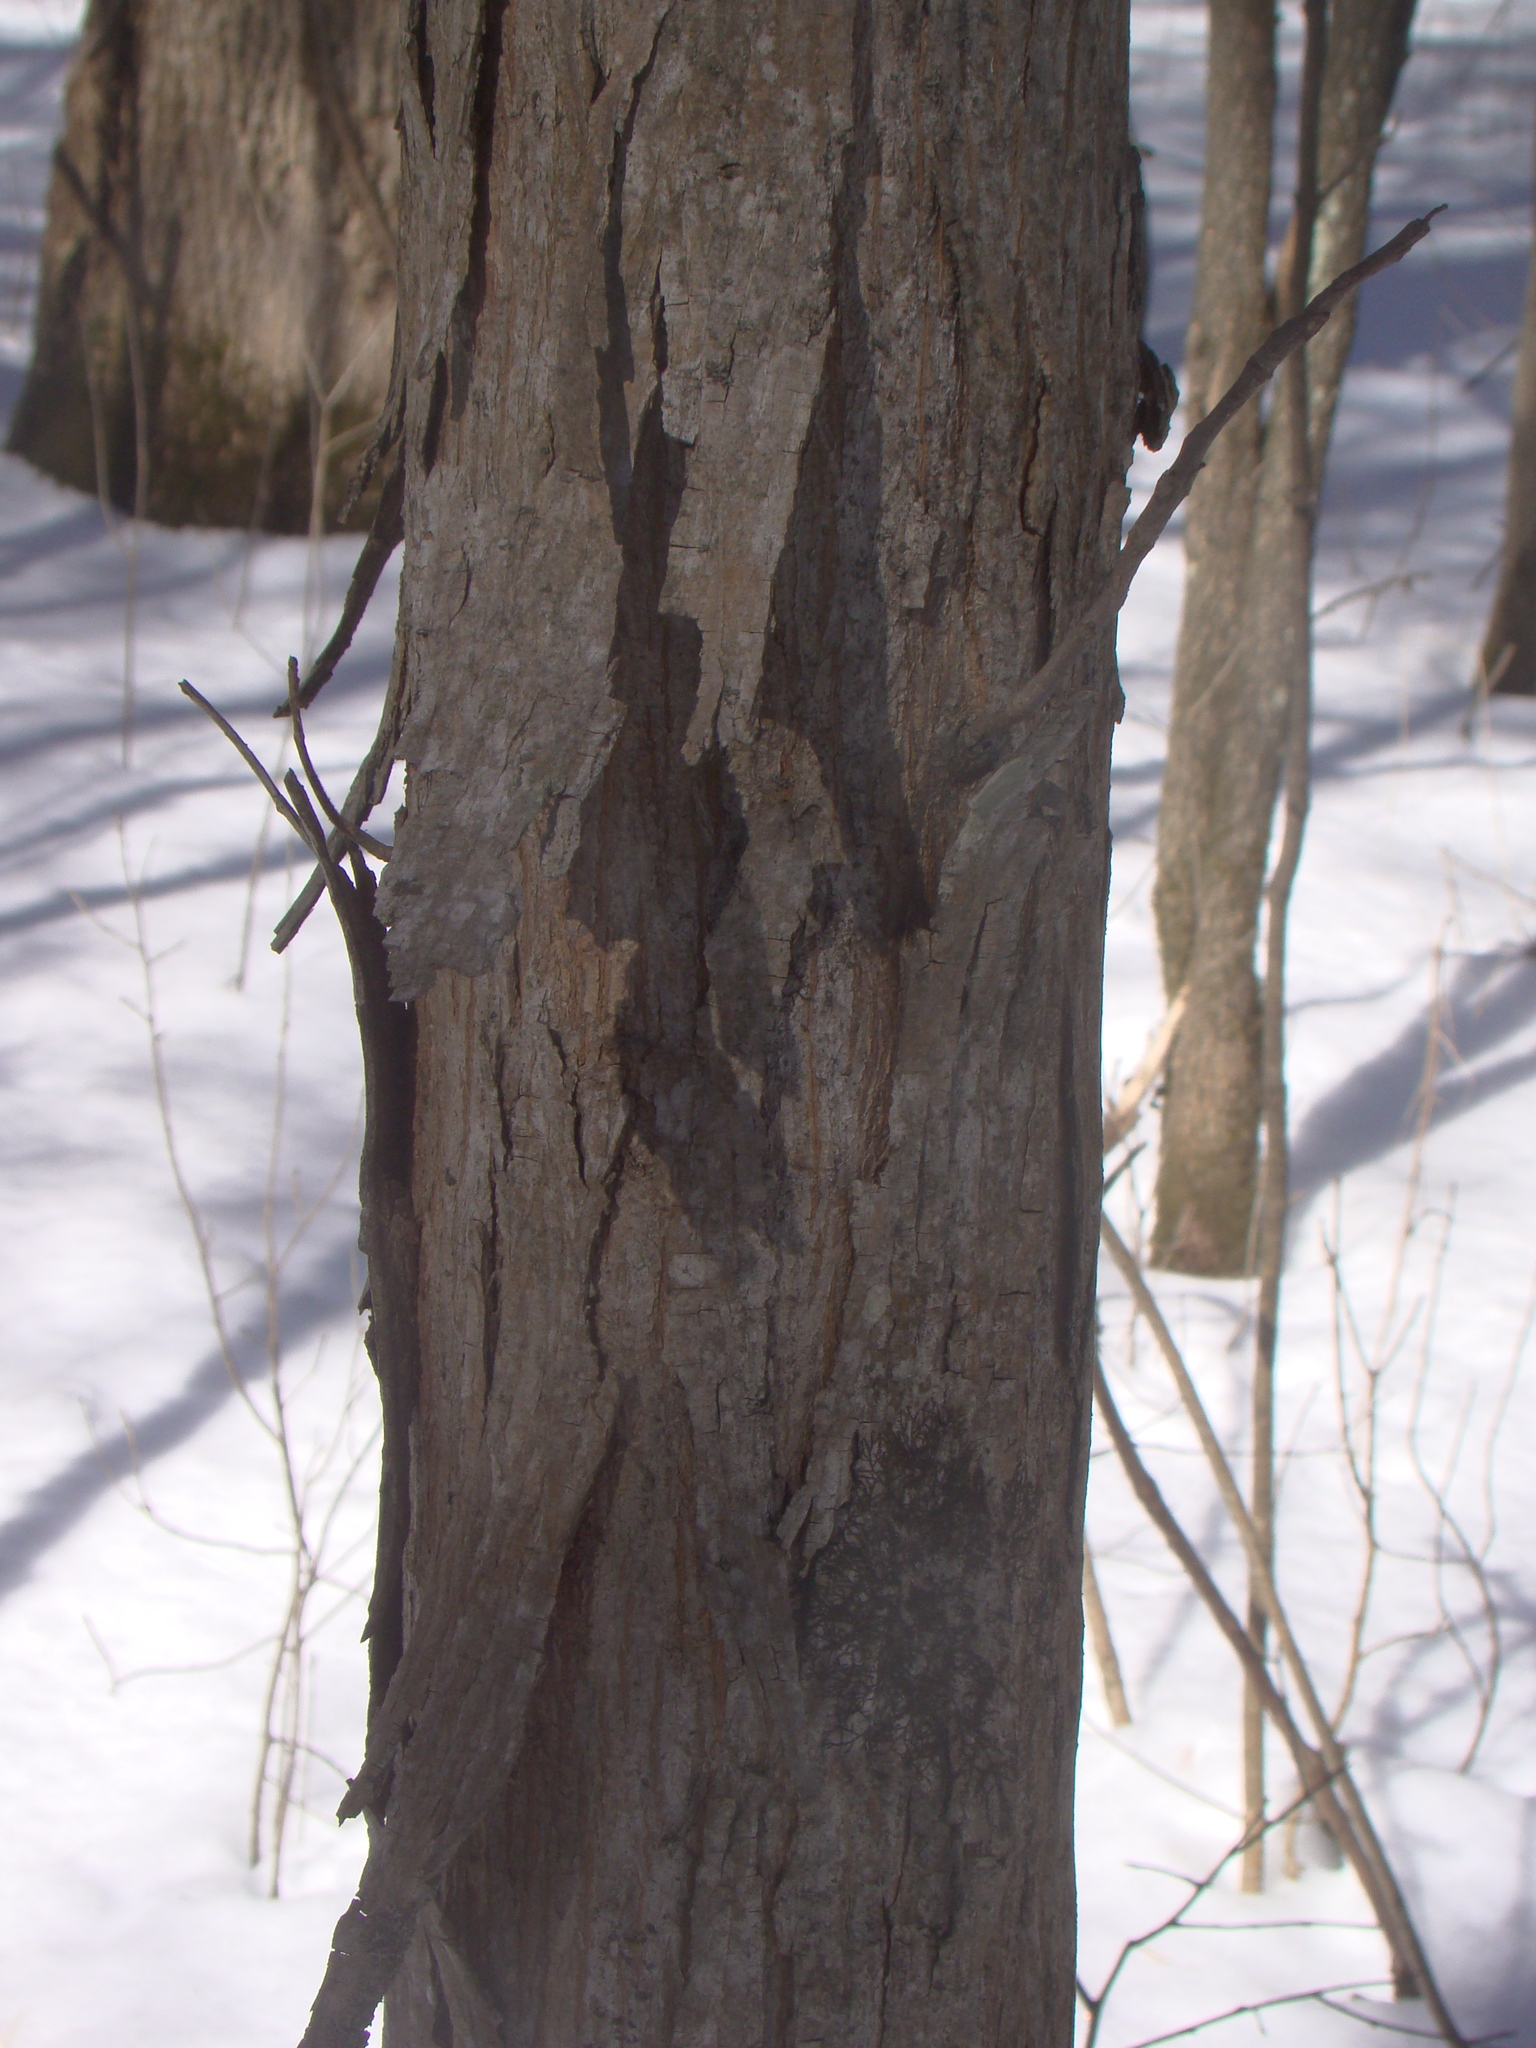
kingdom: Plantae
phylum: Tracheophyta
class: Magnoliopsida
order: Fagales
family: Juglandaceae
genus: Carya
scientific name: Carya ovata
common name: Shagbark hickory
